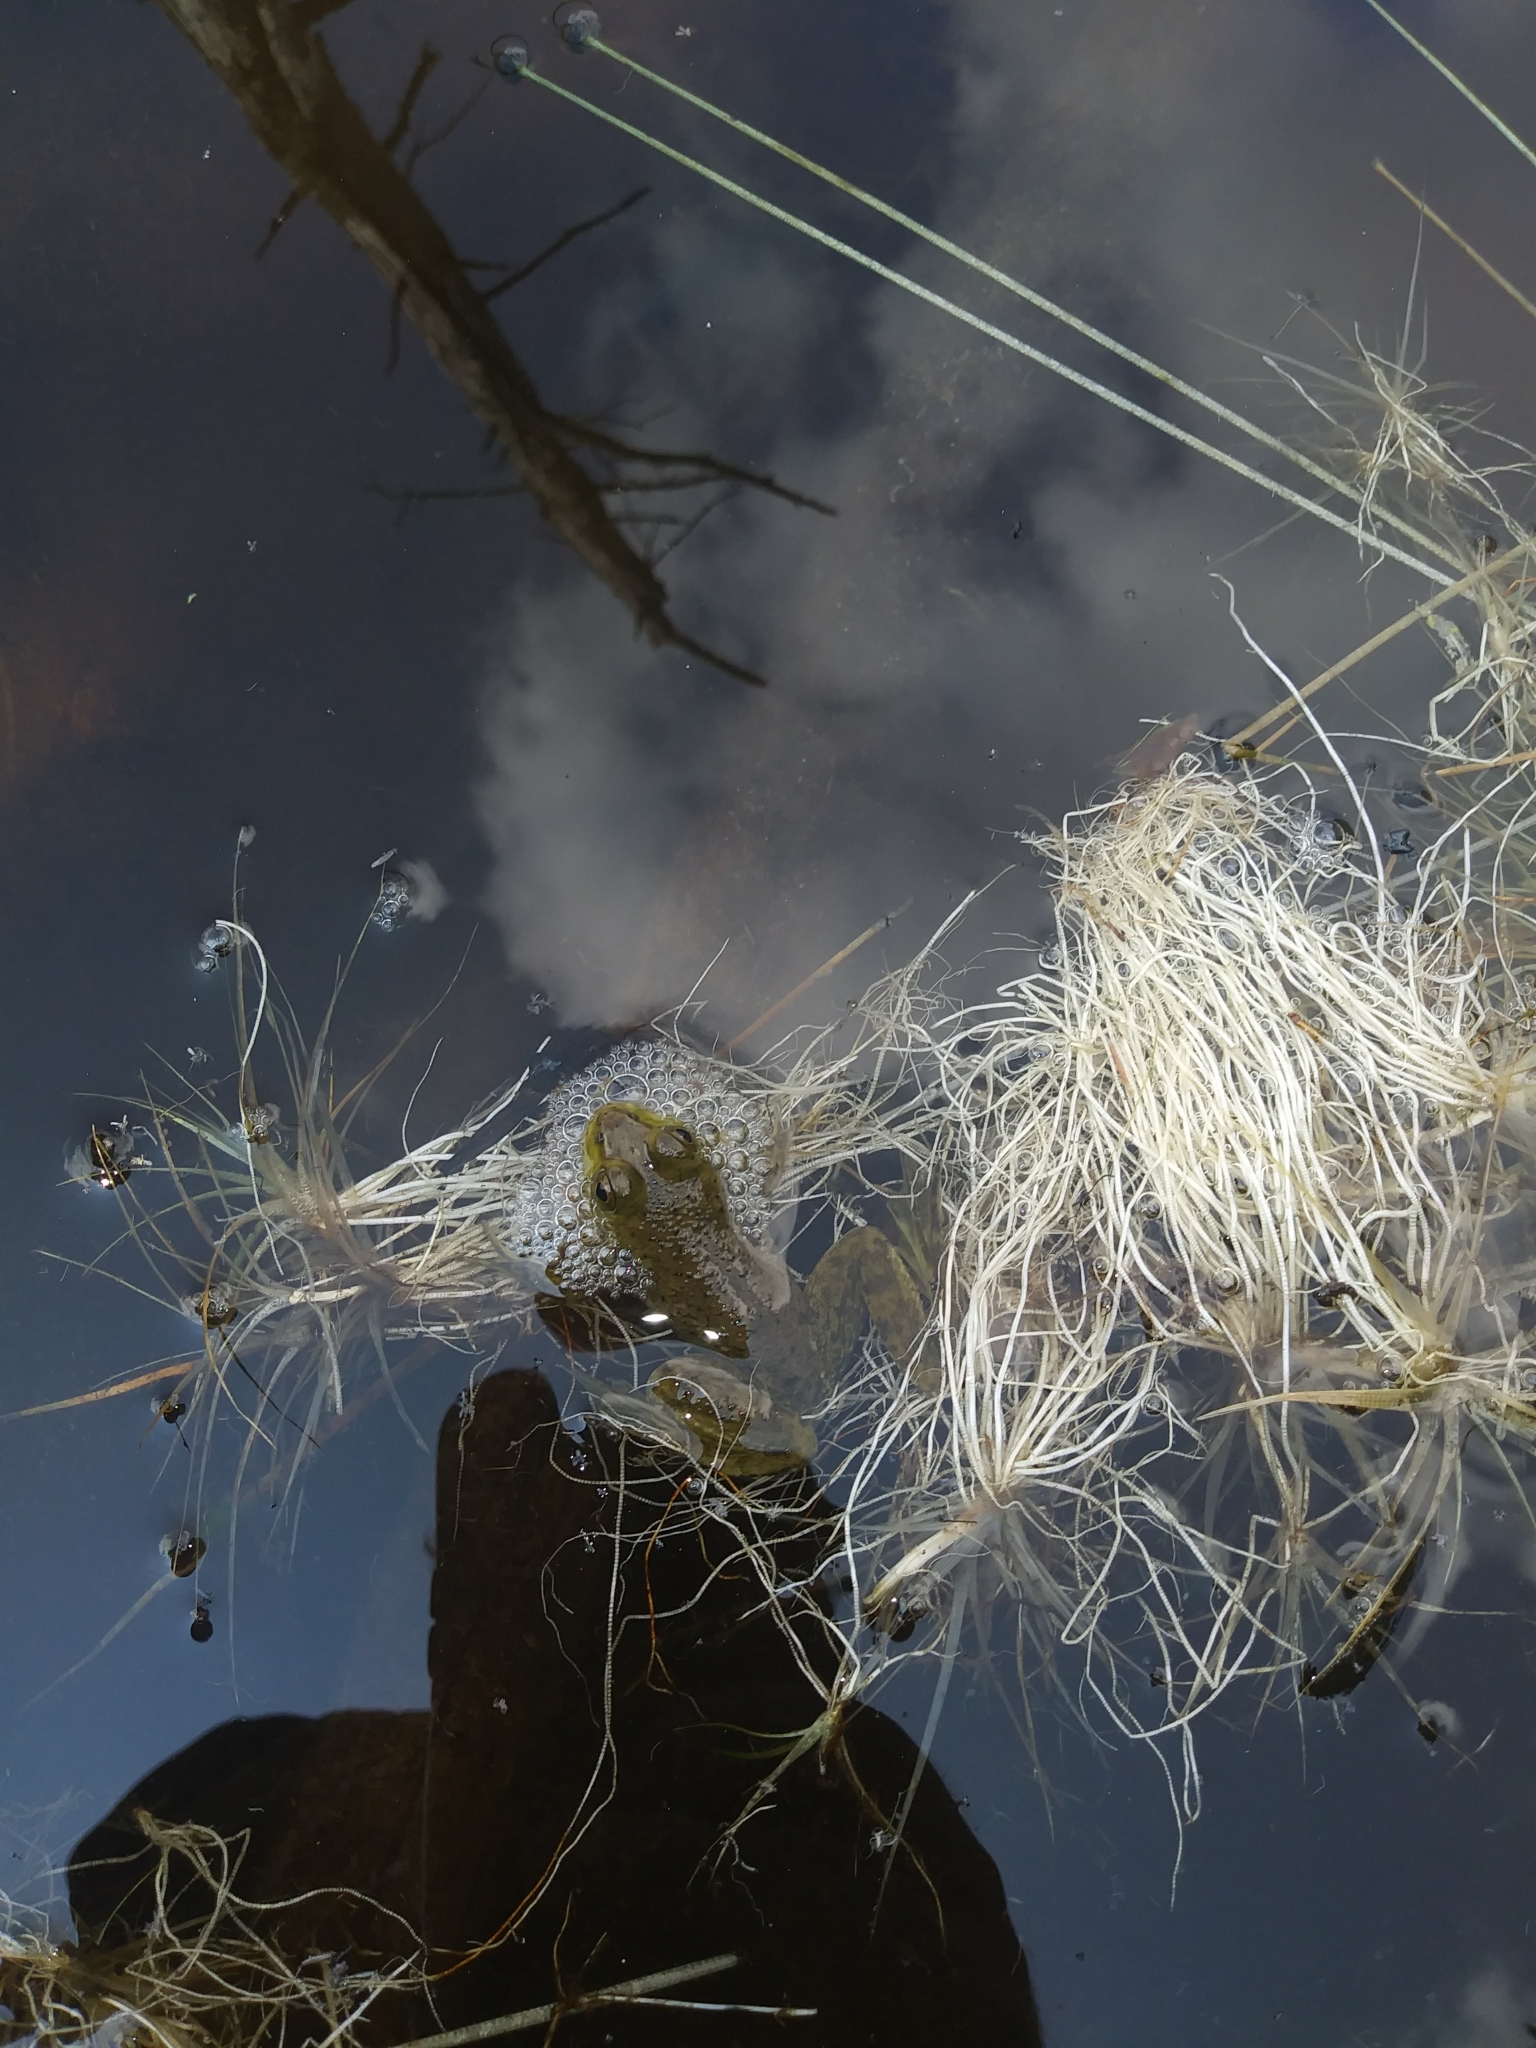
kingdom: Animalia
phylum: Chordata
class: Amphibia
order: Anura
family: Ranidae
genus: Lithobates
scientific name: Lithobates catesbeianus
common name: American bullfrog
